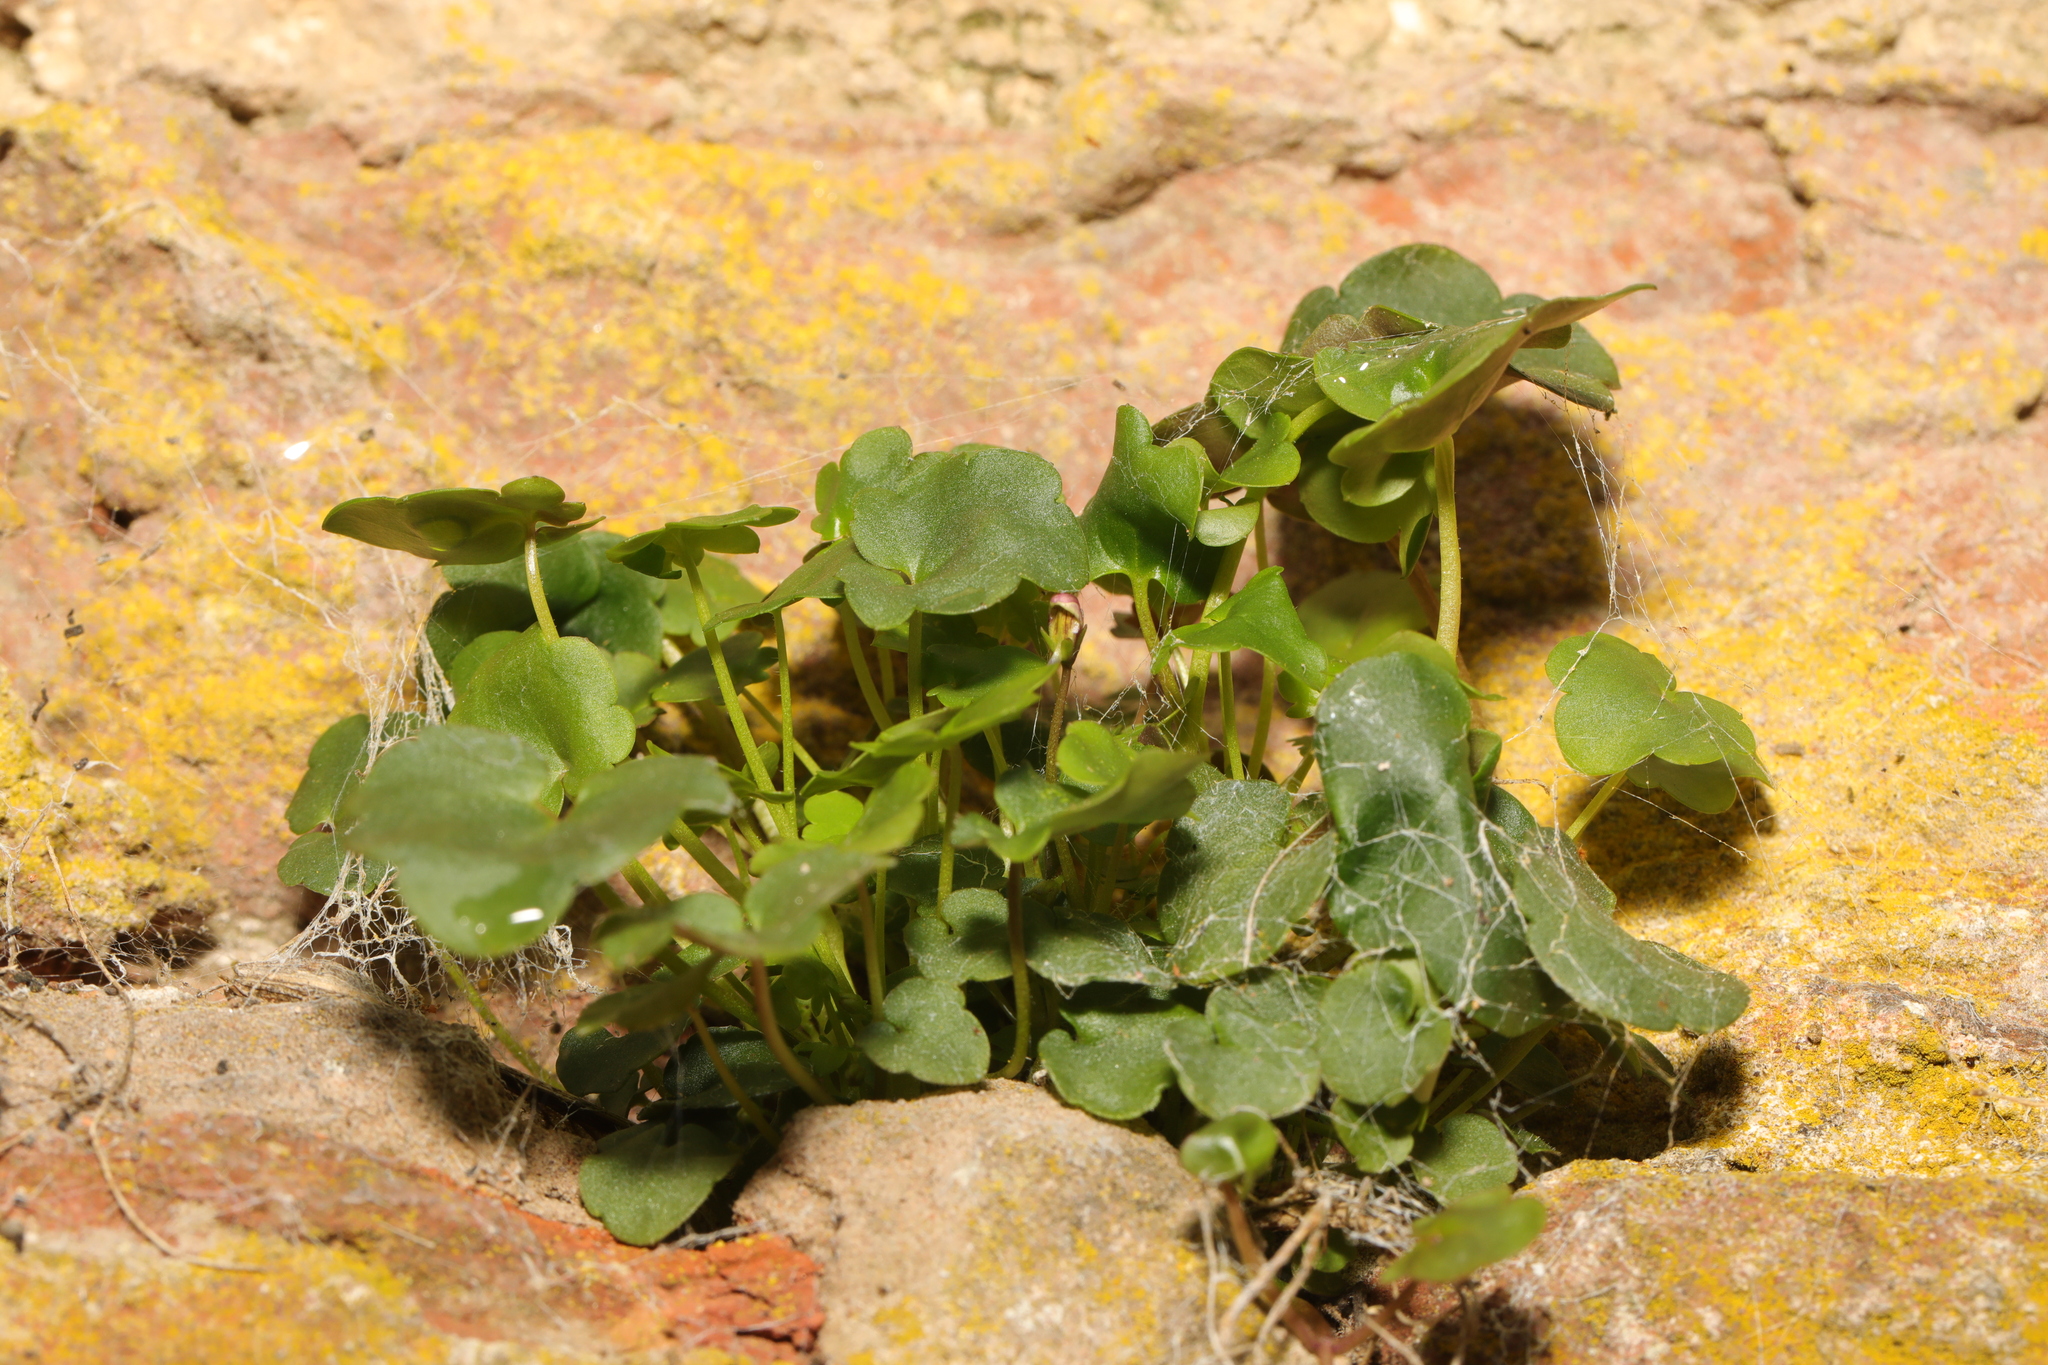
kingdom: Plantae
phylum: Tracheophyta
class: Magnoliopsida
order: Lamiales
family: Plantaginaceae
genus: Cymbalaria
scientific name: Cymbalaria muralis
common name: Ivy-leaved toadflax
